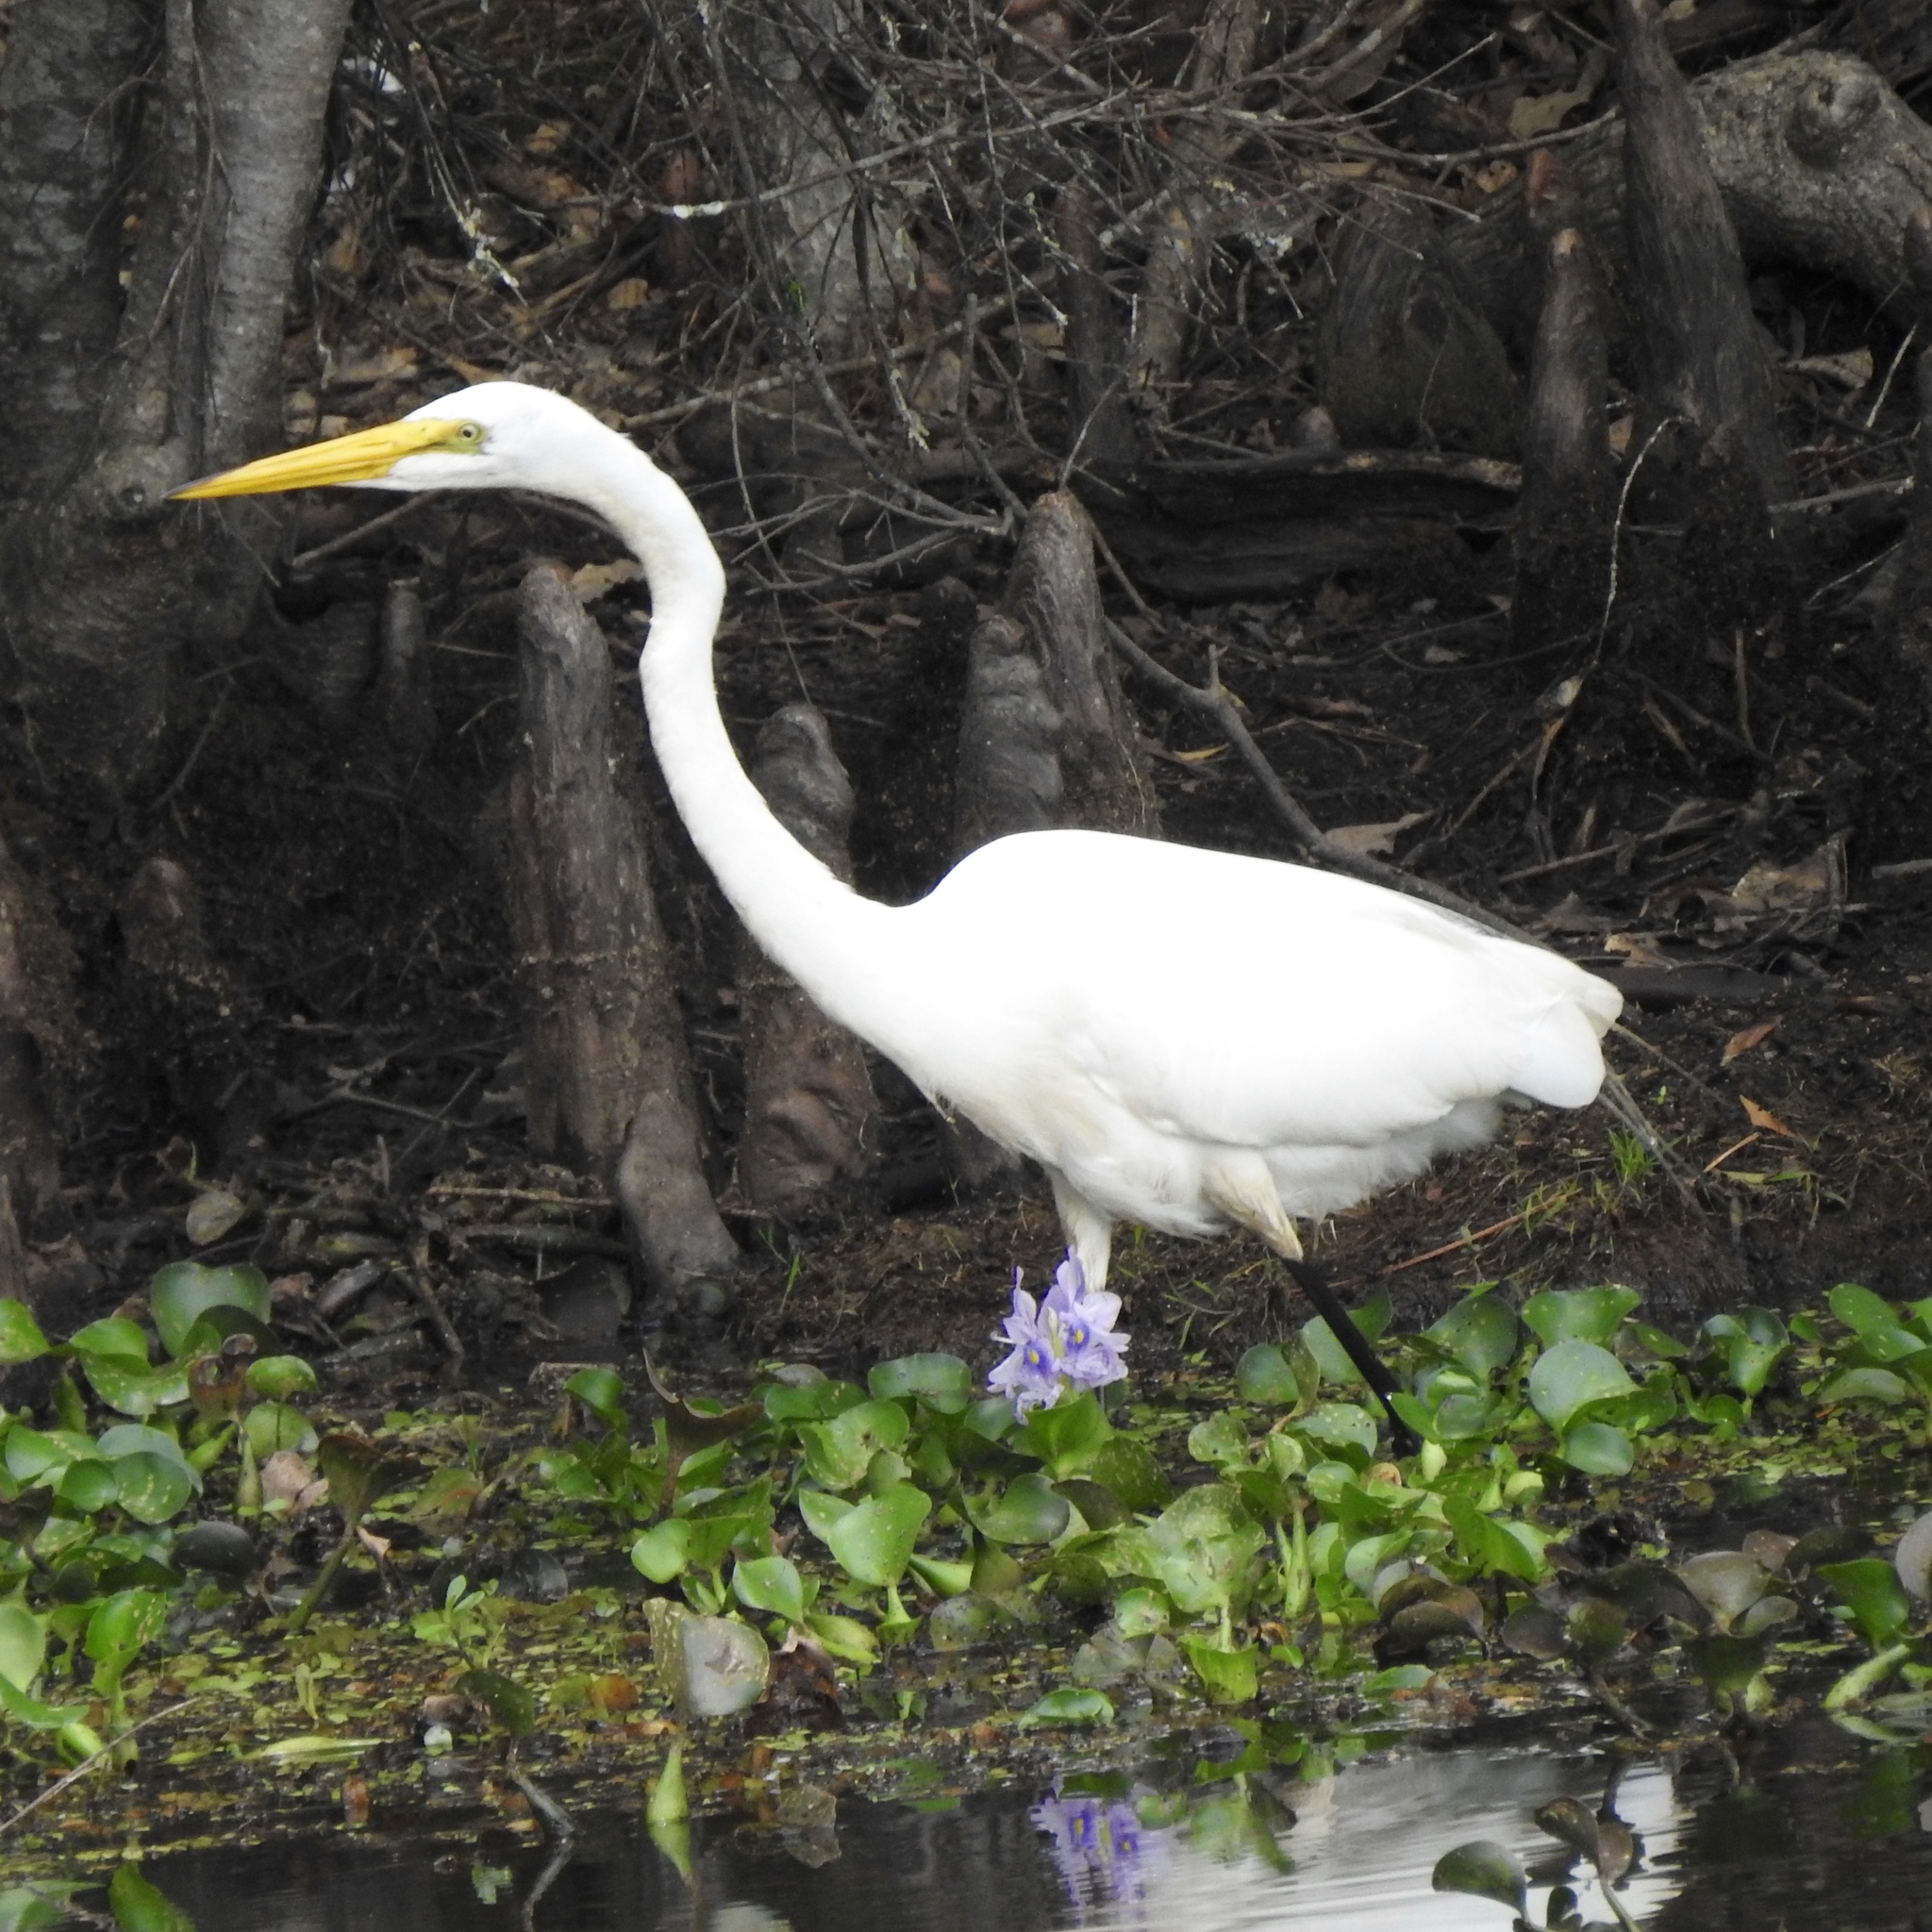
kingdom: Animalia
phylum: Chordata
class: Aves
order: Pelecaniformes
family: Ardeidae
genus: Ardea
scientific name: Ardea alba
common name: Great egret
